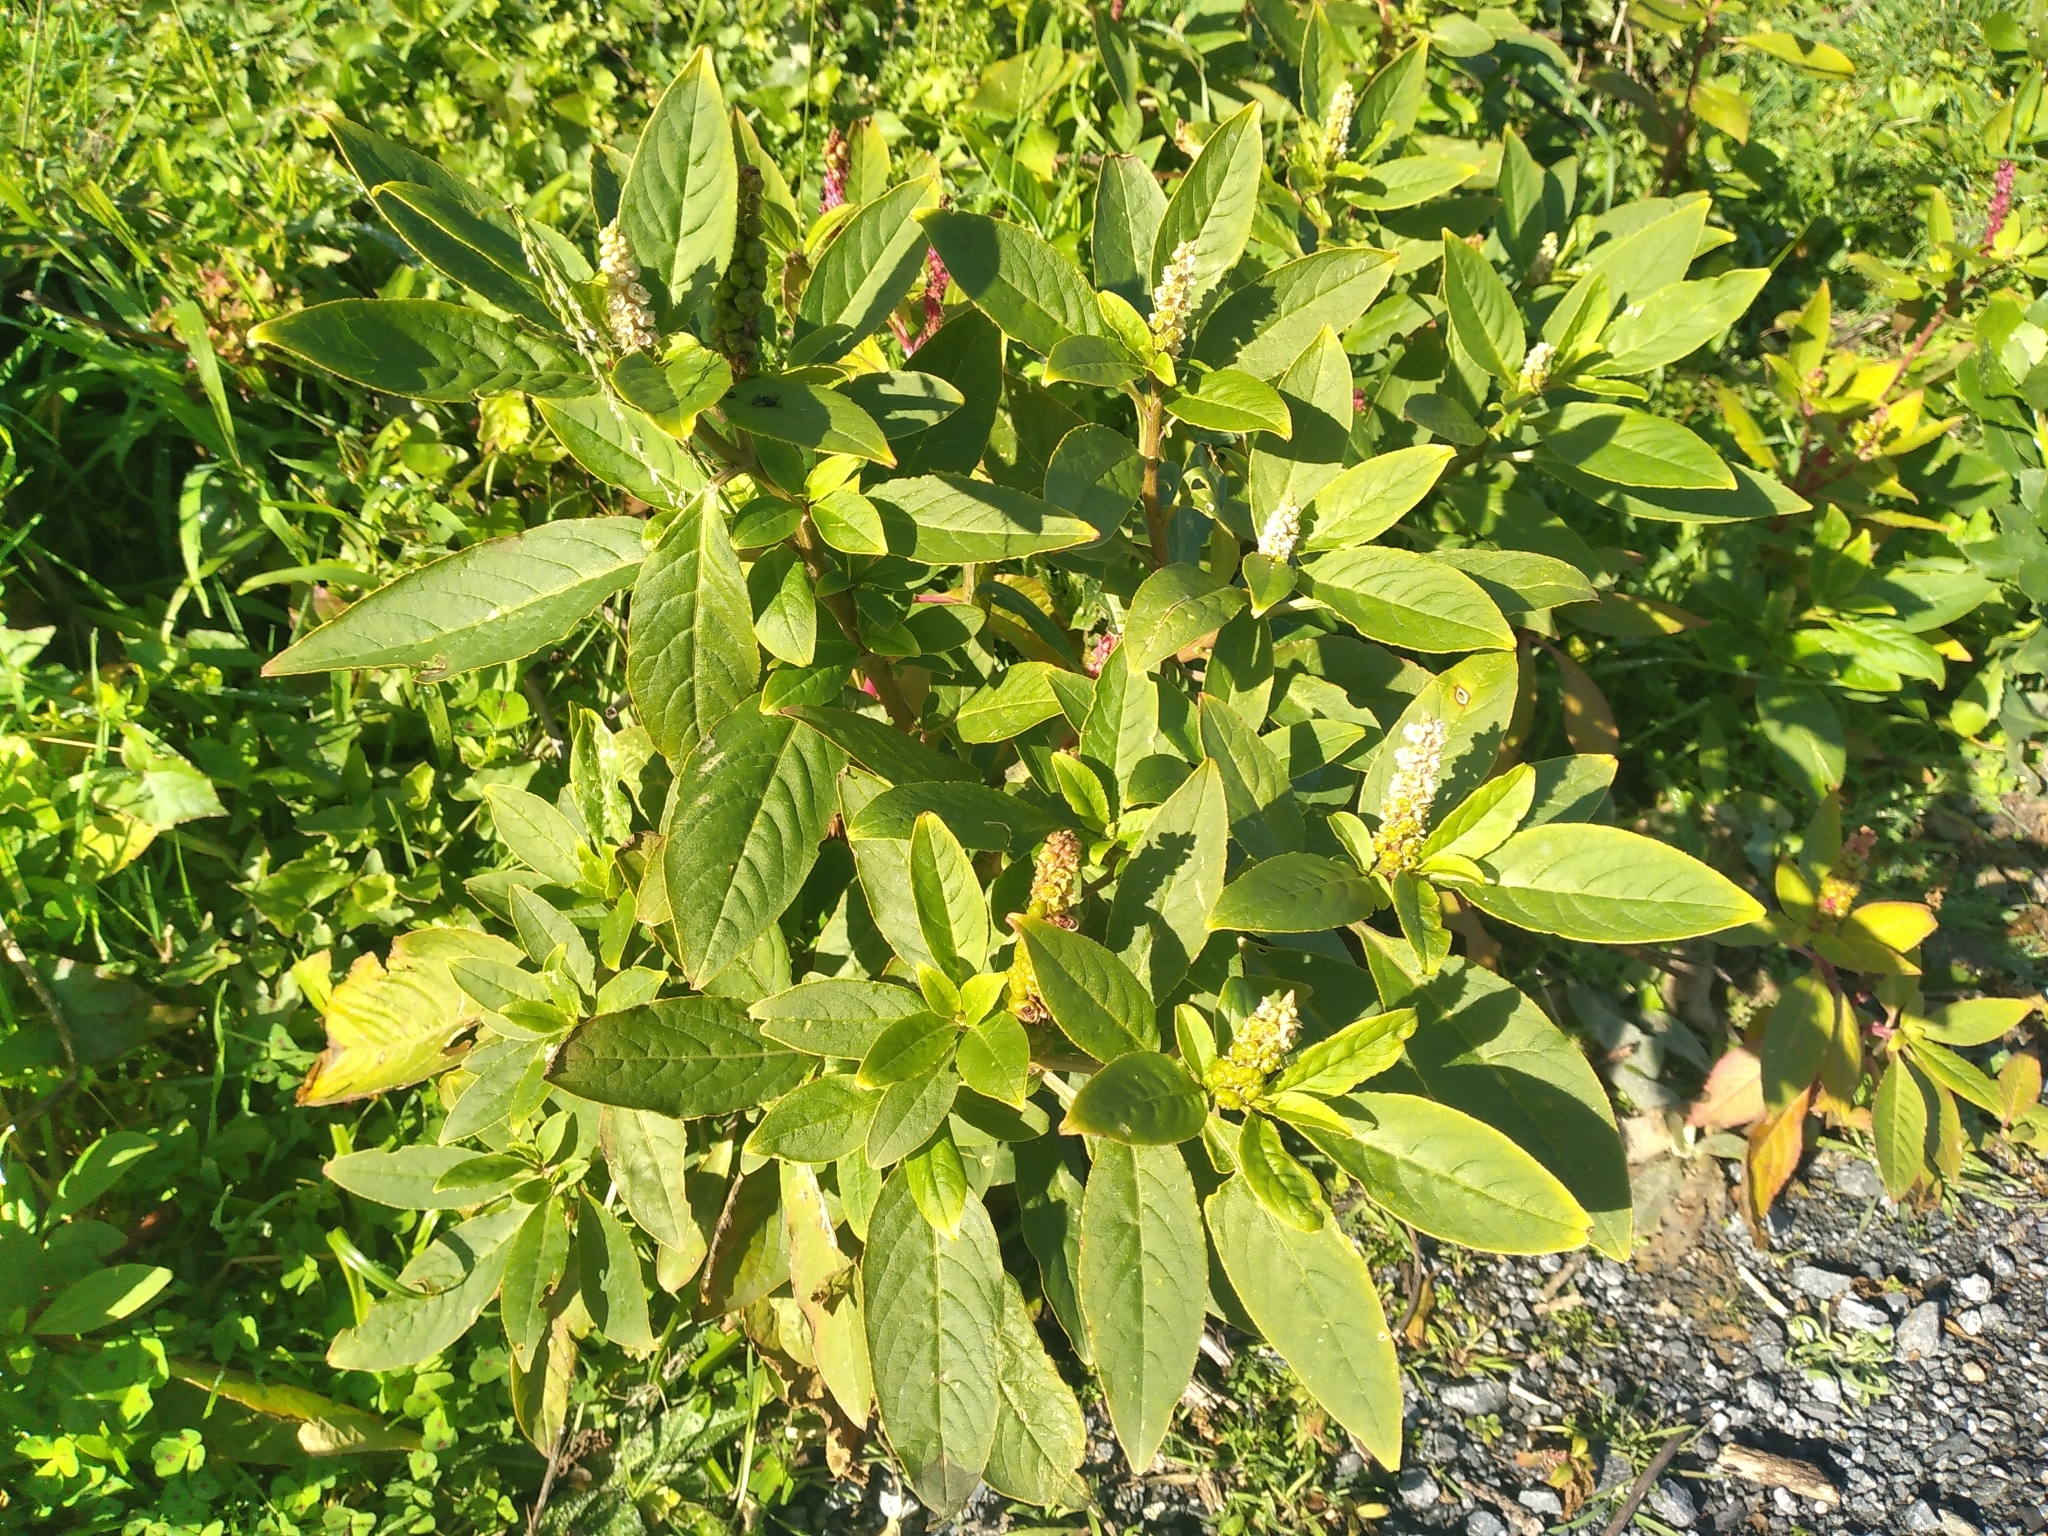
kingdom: Plantae
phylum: Tracheophyta
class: Magnoliopsida
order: Caryophyllales
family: Phytolaccaceae
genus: Phytolacca
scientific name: Phytolacca icosandra
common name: Button pokeweed
